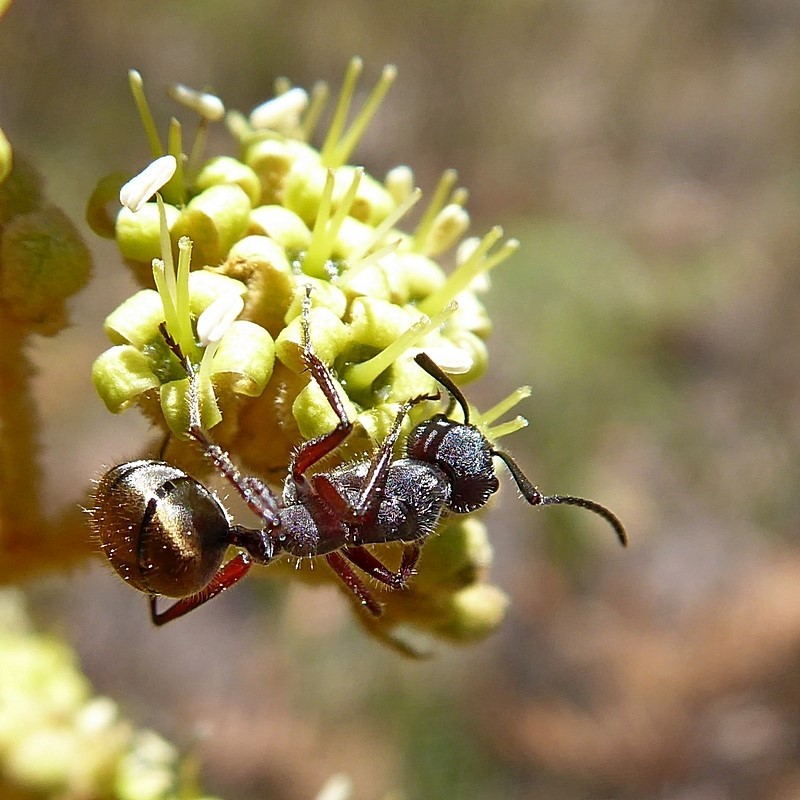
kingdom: Animalia
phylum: Arthropoda
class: Insecta
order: Hymenoptera
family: Formicidae
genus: Camponotus
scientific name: Camponotus suffusus
